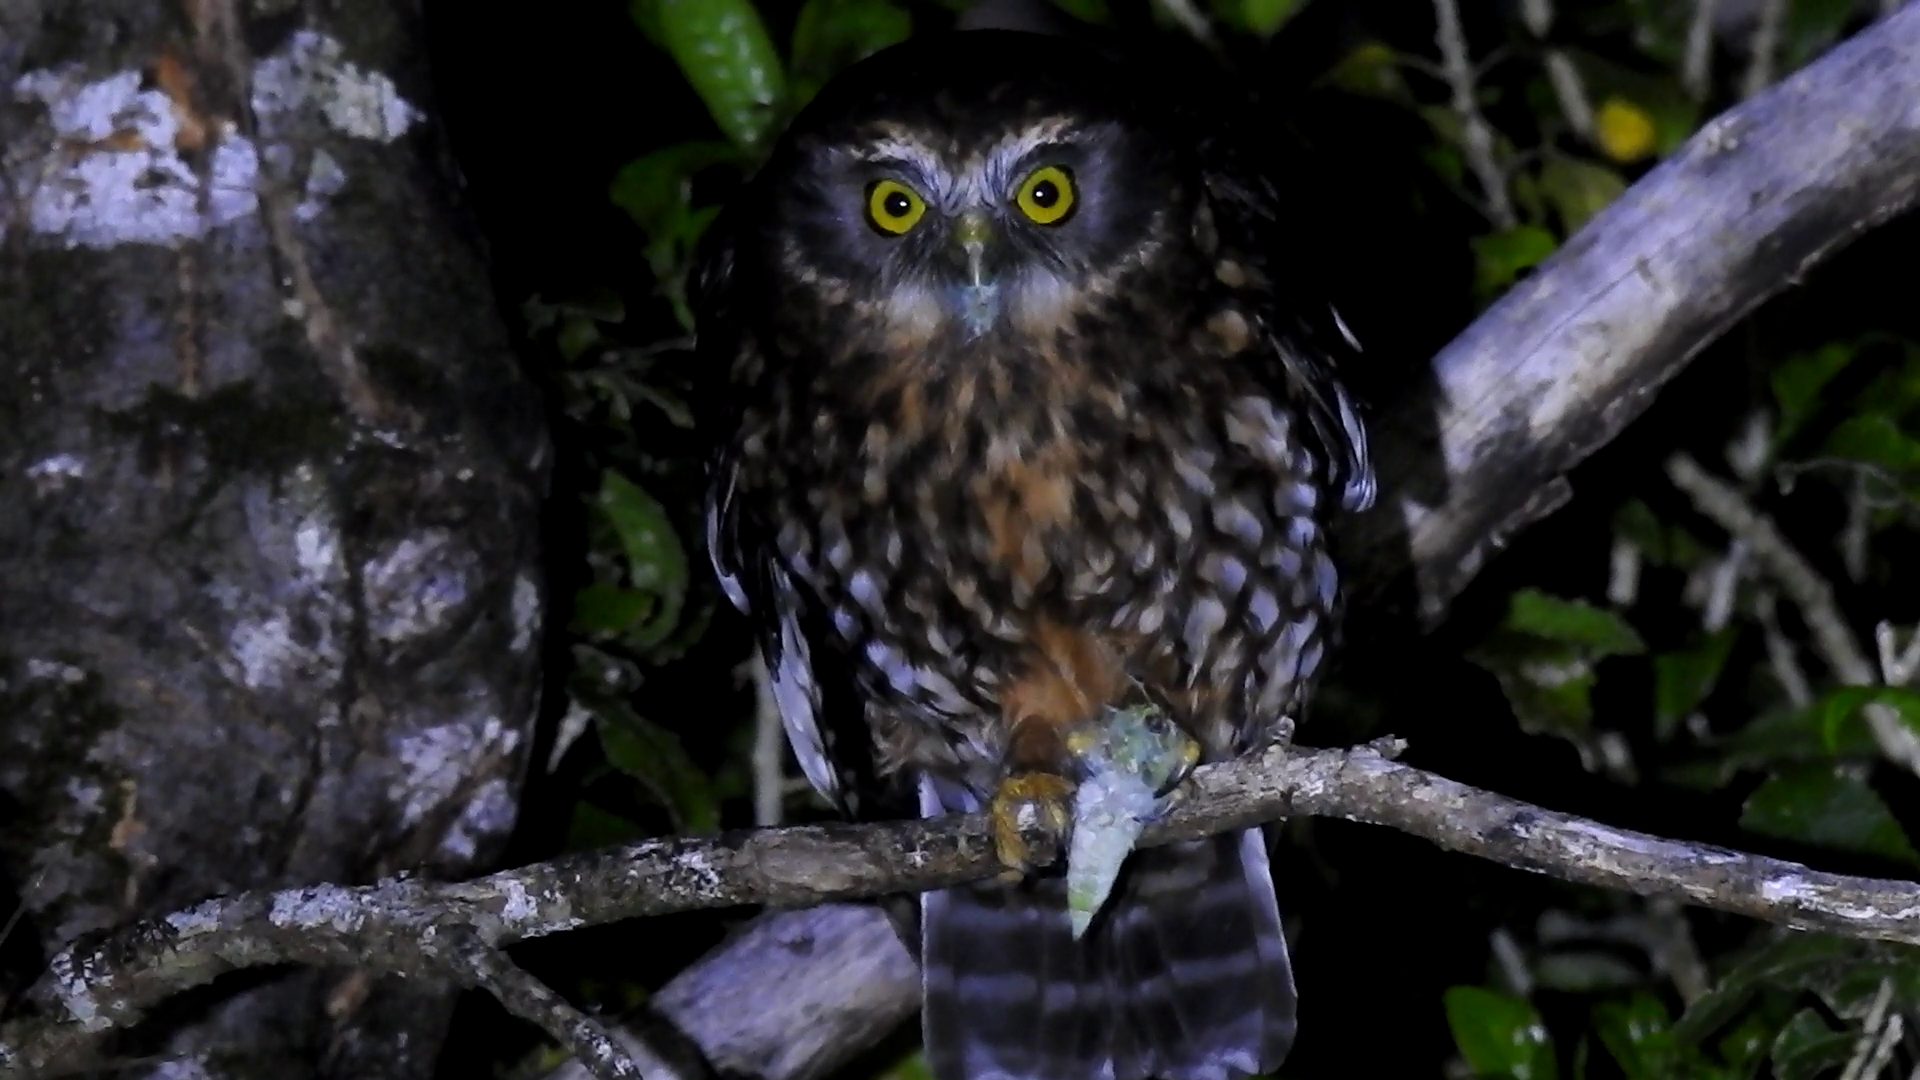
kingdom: Animalia
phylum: Chordata
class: Aves
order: Strigiformes
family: Strigidae
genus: Ninox
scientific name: Ninox novaeseelandiae
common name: Morepork
